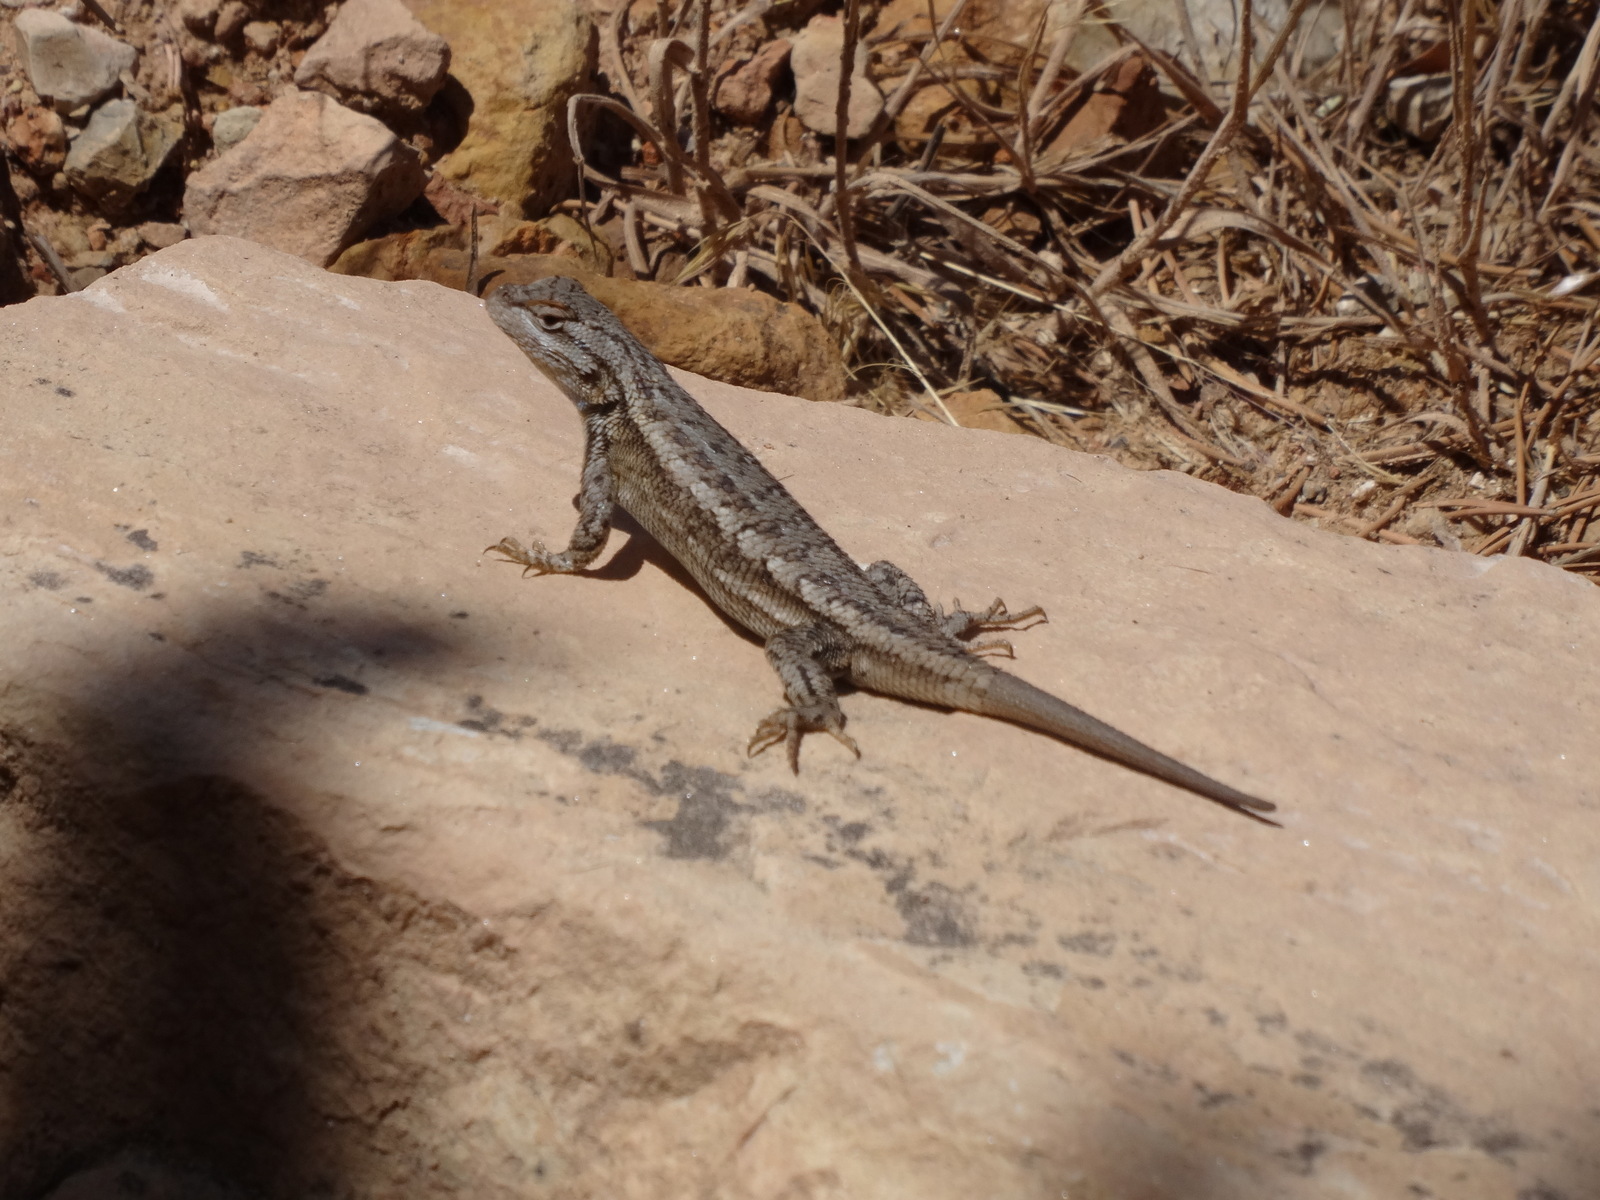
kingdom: Animalia
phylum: Chordata
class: Squamata
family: Phrynosomatidae
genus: Sceloporus
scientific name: Sceloporus tristichus
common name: Plateau fence lizard
